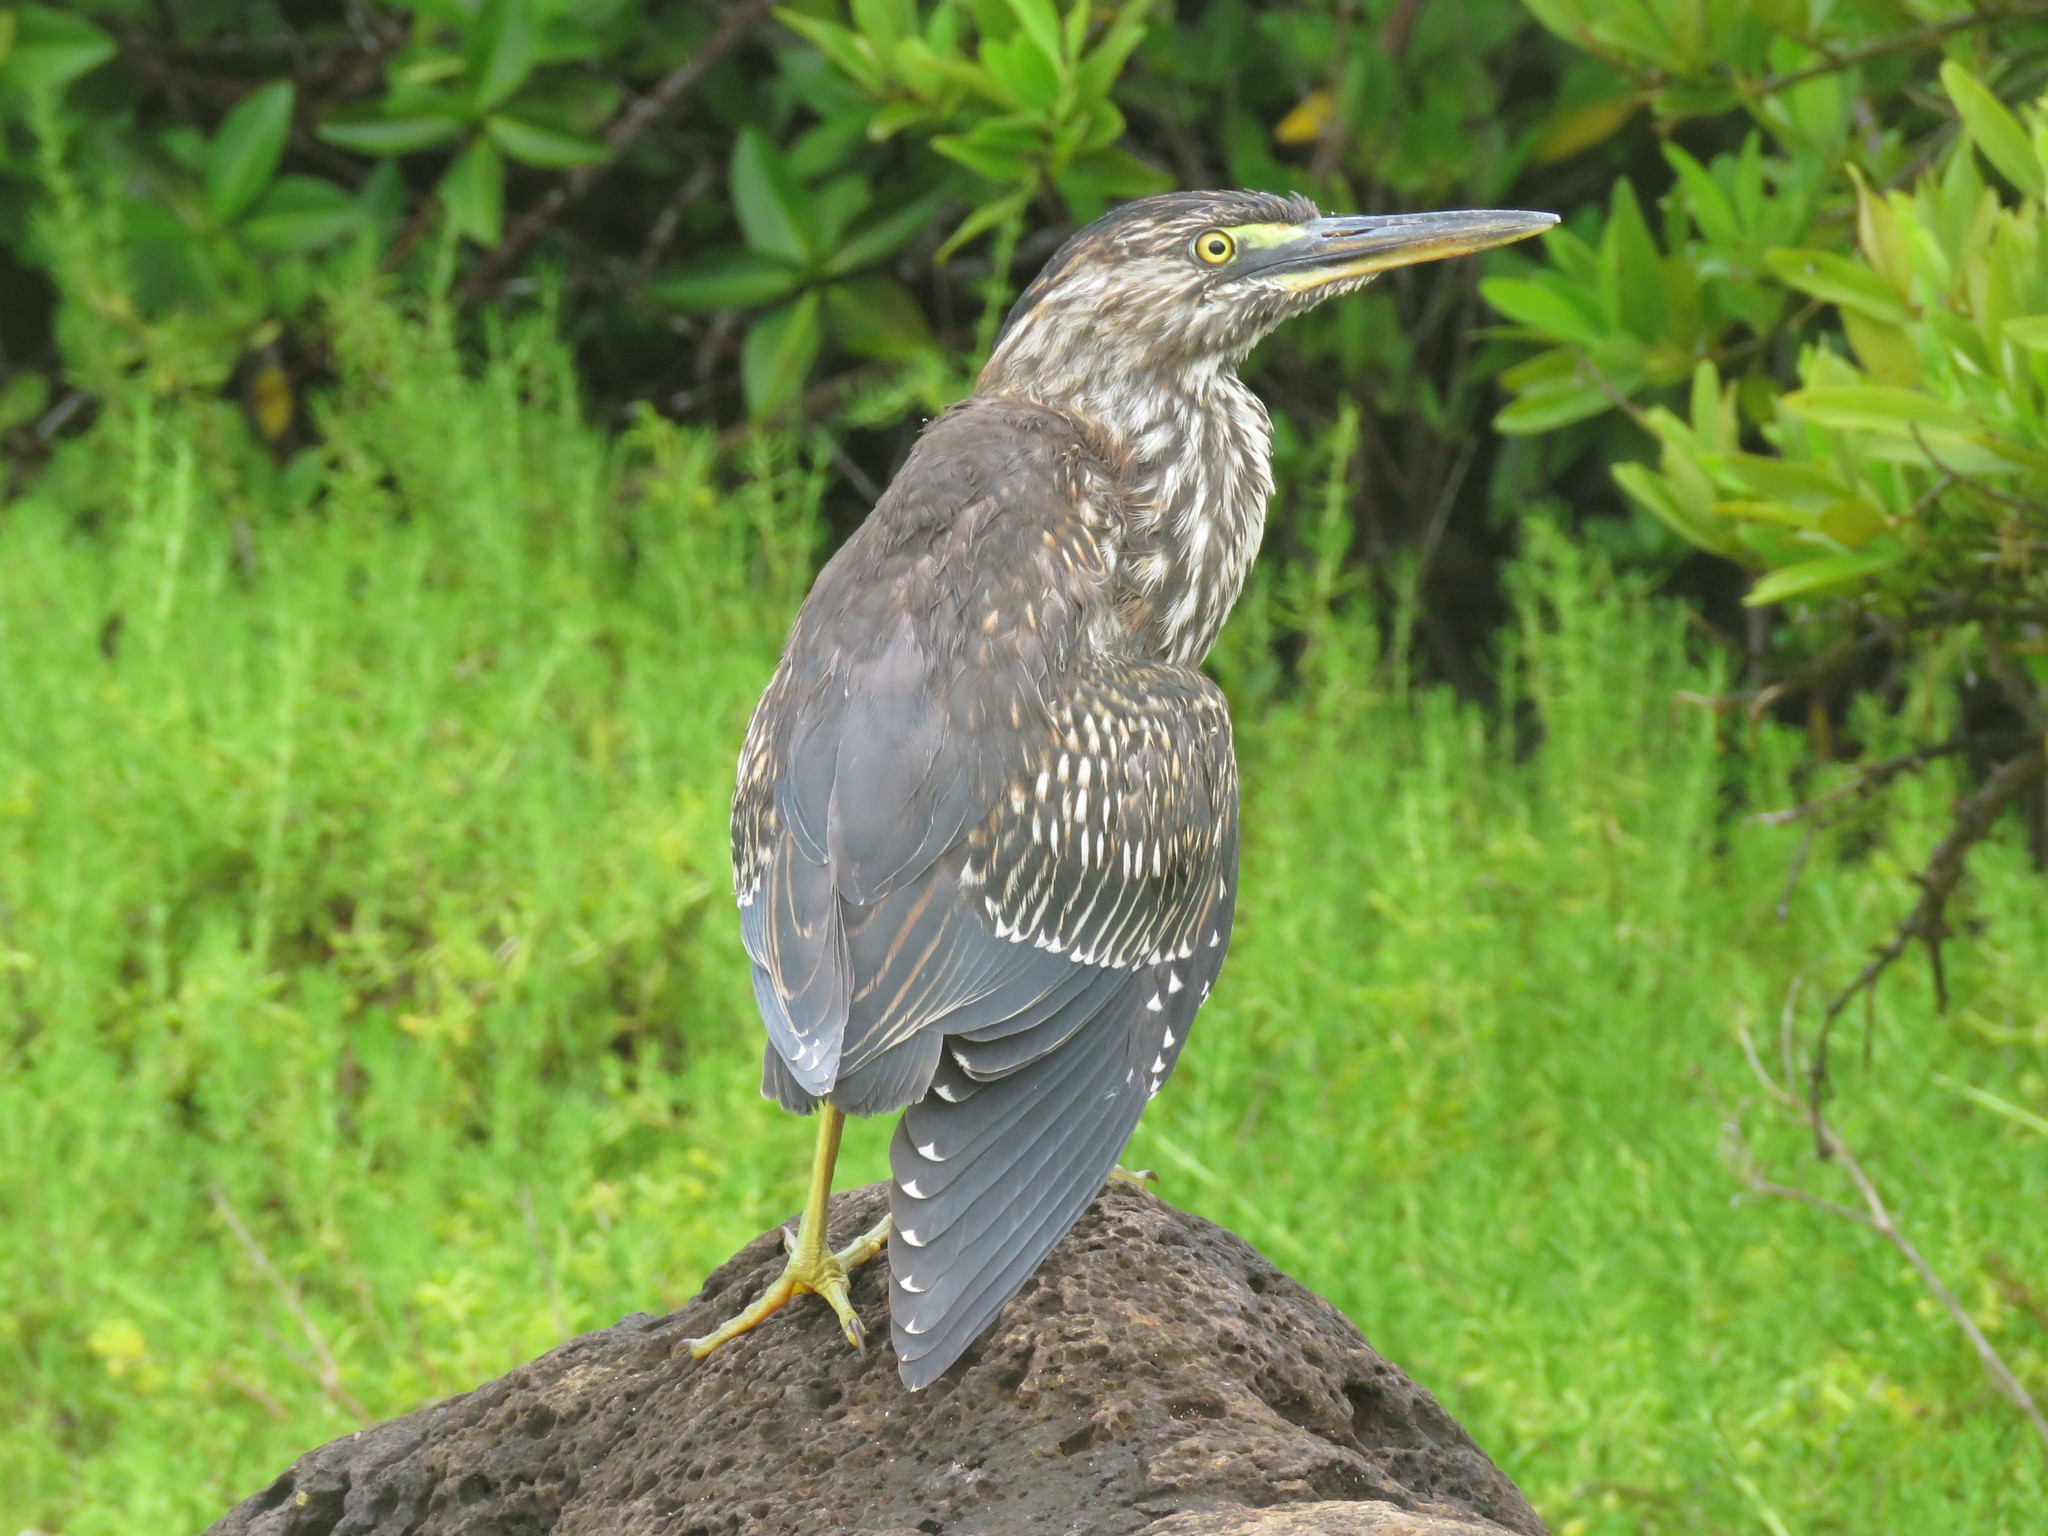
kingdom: Animalia
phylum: Chordata
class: Aves
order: Pelecaniformes
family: Ardeidae
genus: Butorides
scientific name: Butorides striata
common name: Striated heron
